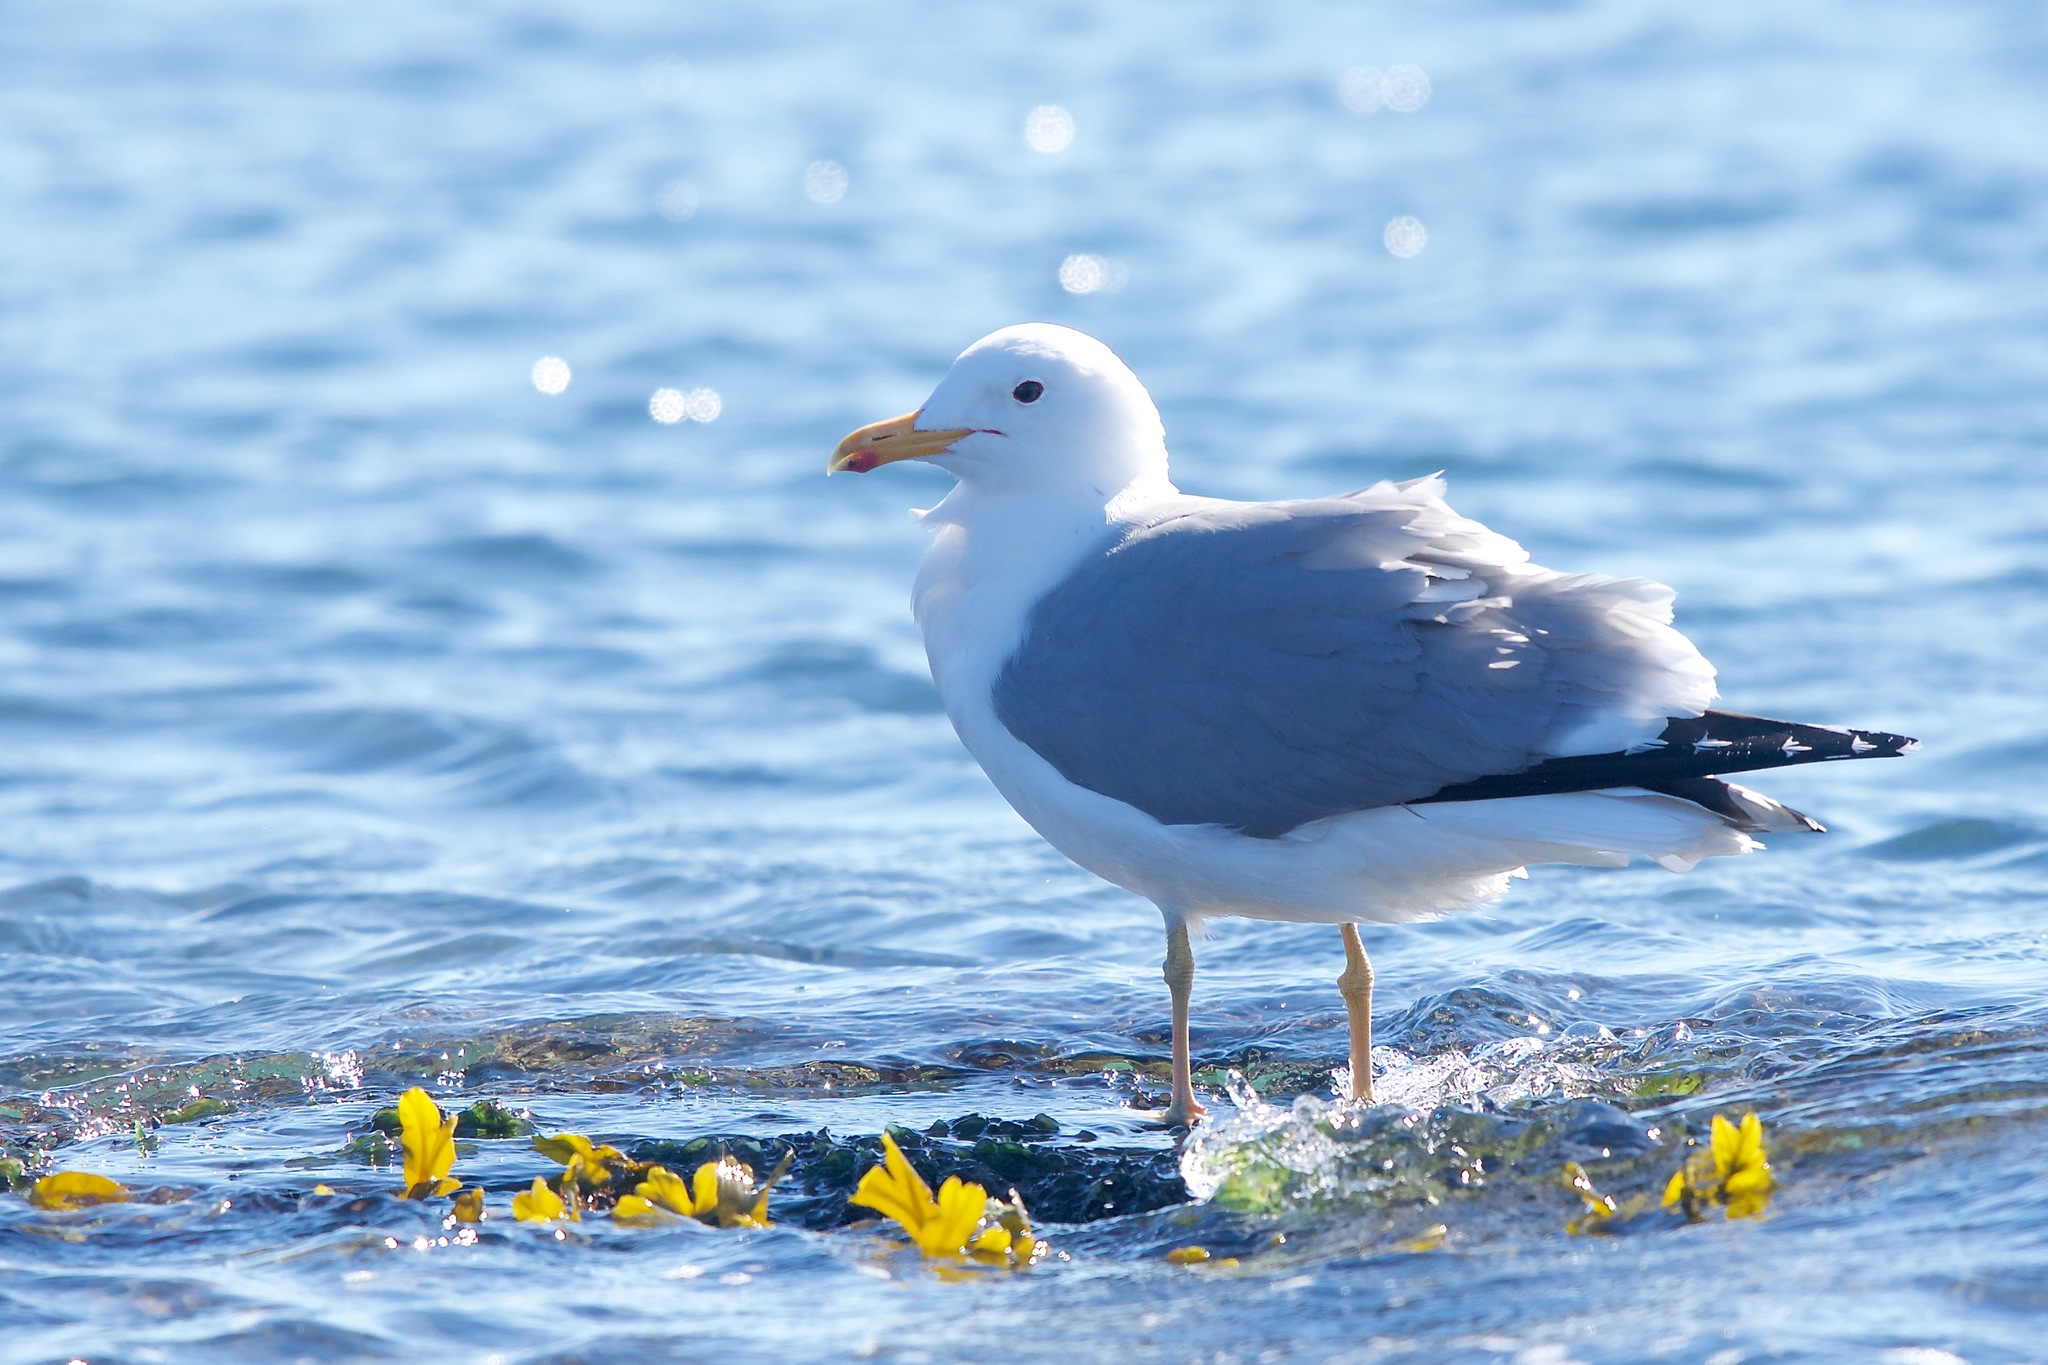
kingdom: Animalia
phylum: Chordata
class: Aves
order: Charadriiformes
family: Laridae
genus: Larus
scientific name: Larus californicus
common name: California gull
